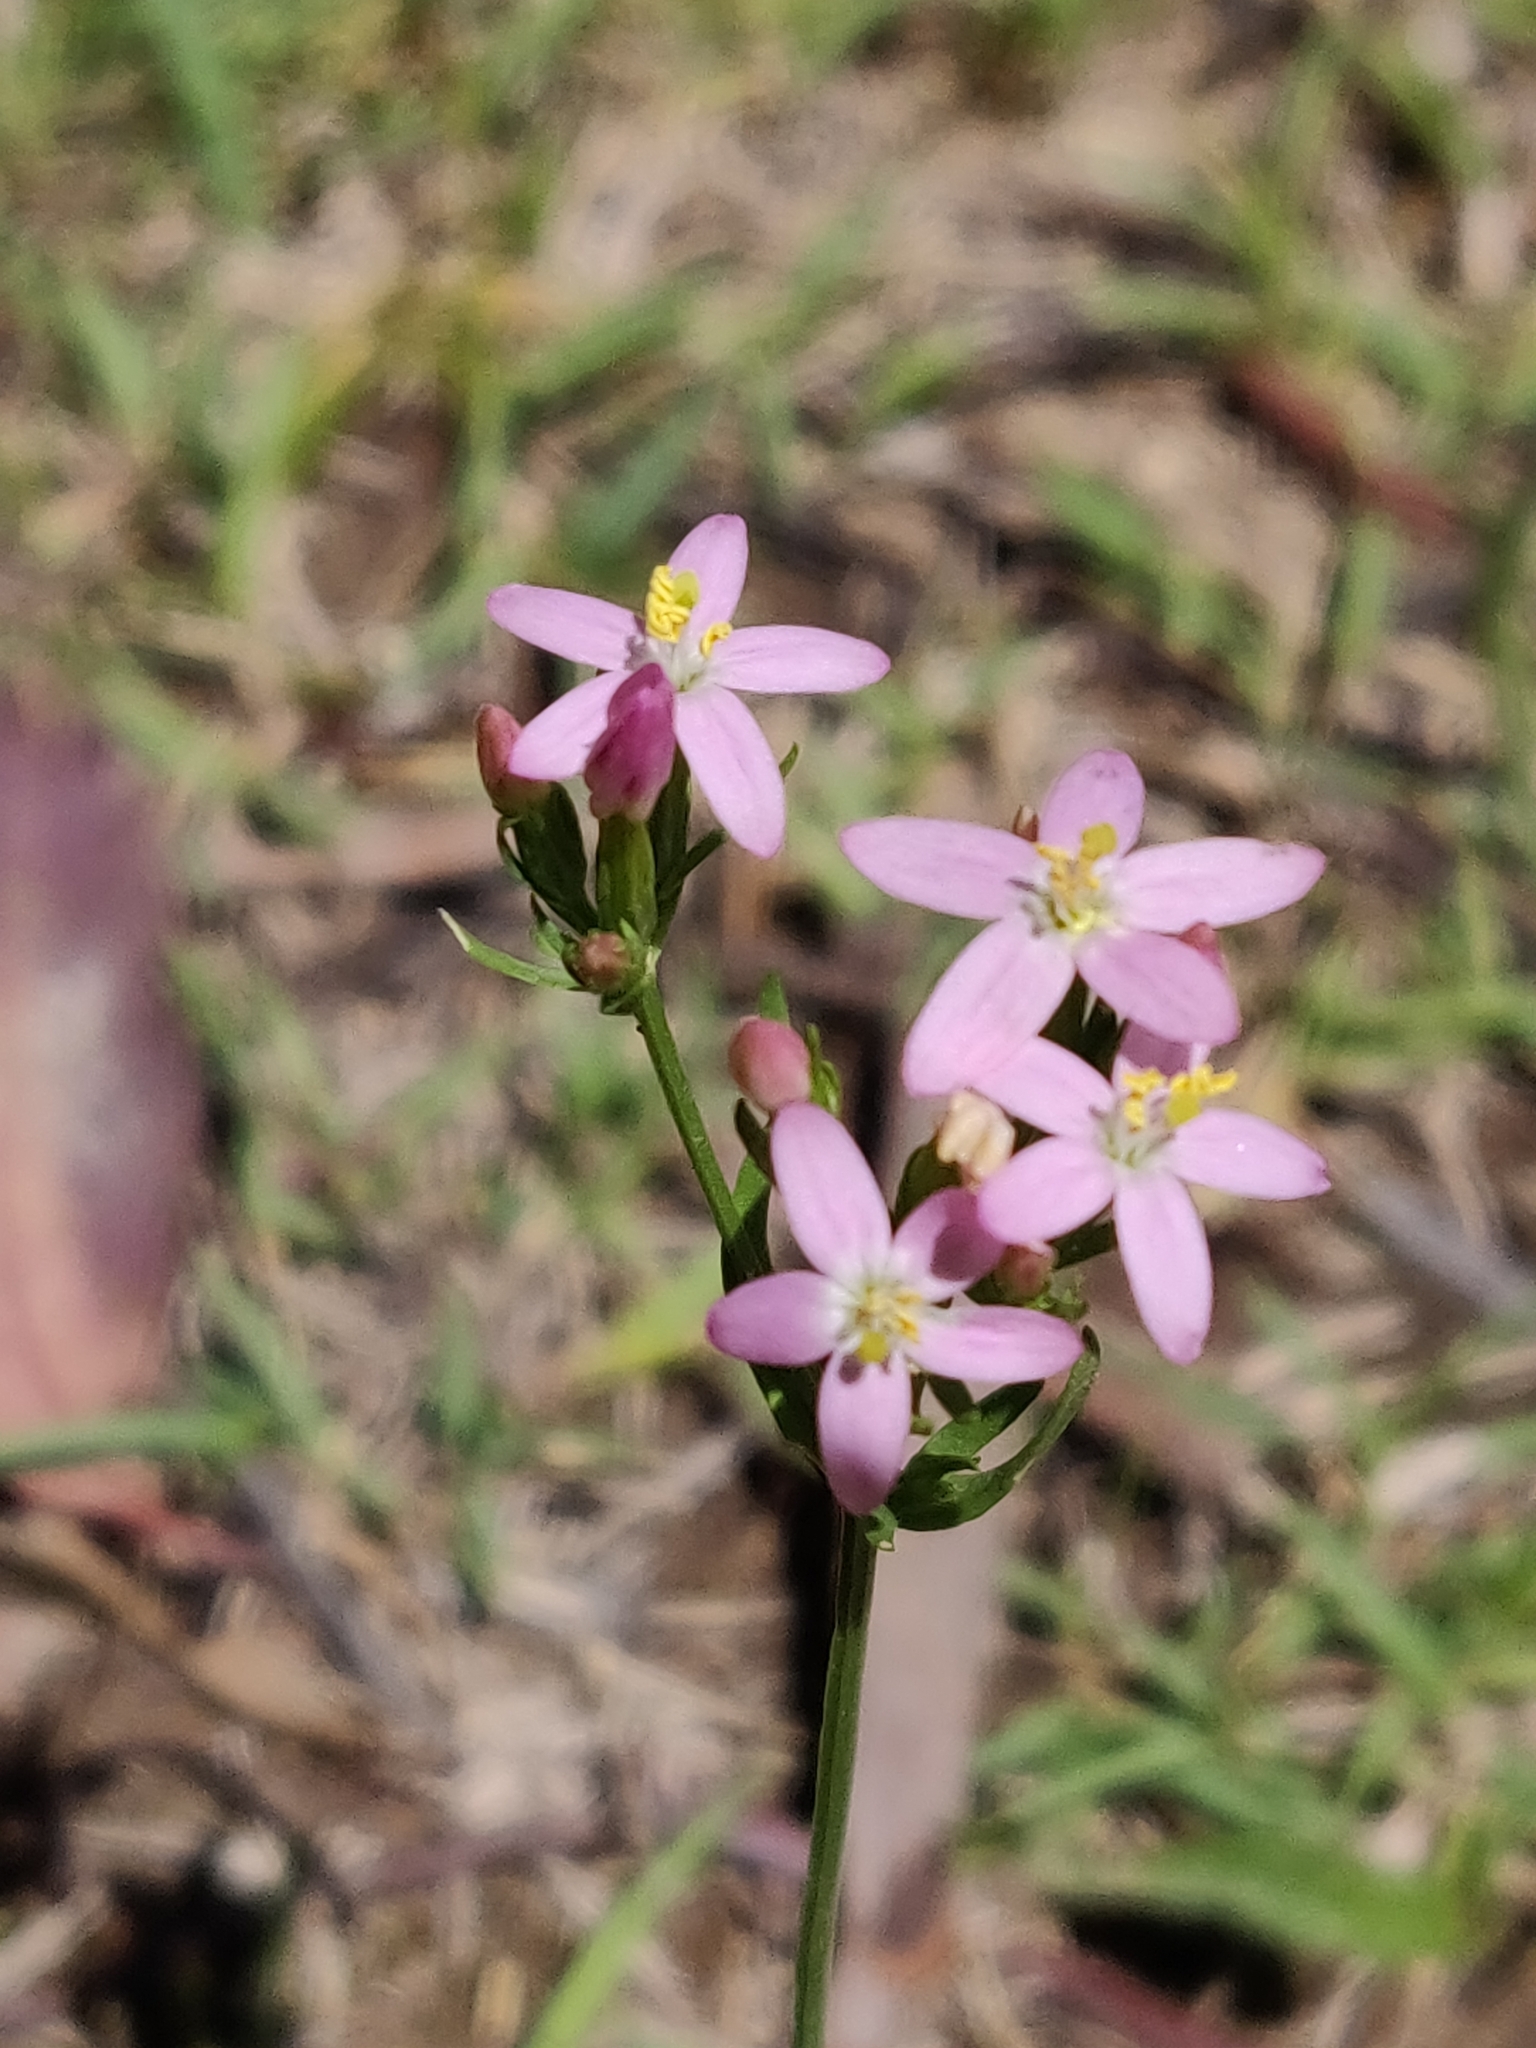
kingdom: Plantae
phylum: Tracheophyta
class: Magnoliopsida
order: Gentianales
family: Gentianaceae
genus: Centaurium
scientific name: Centaurium erythraea
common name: Common centaury
